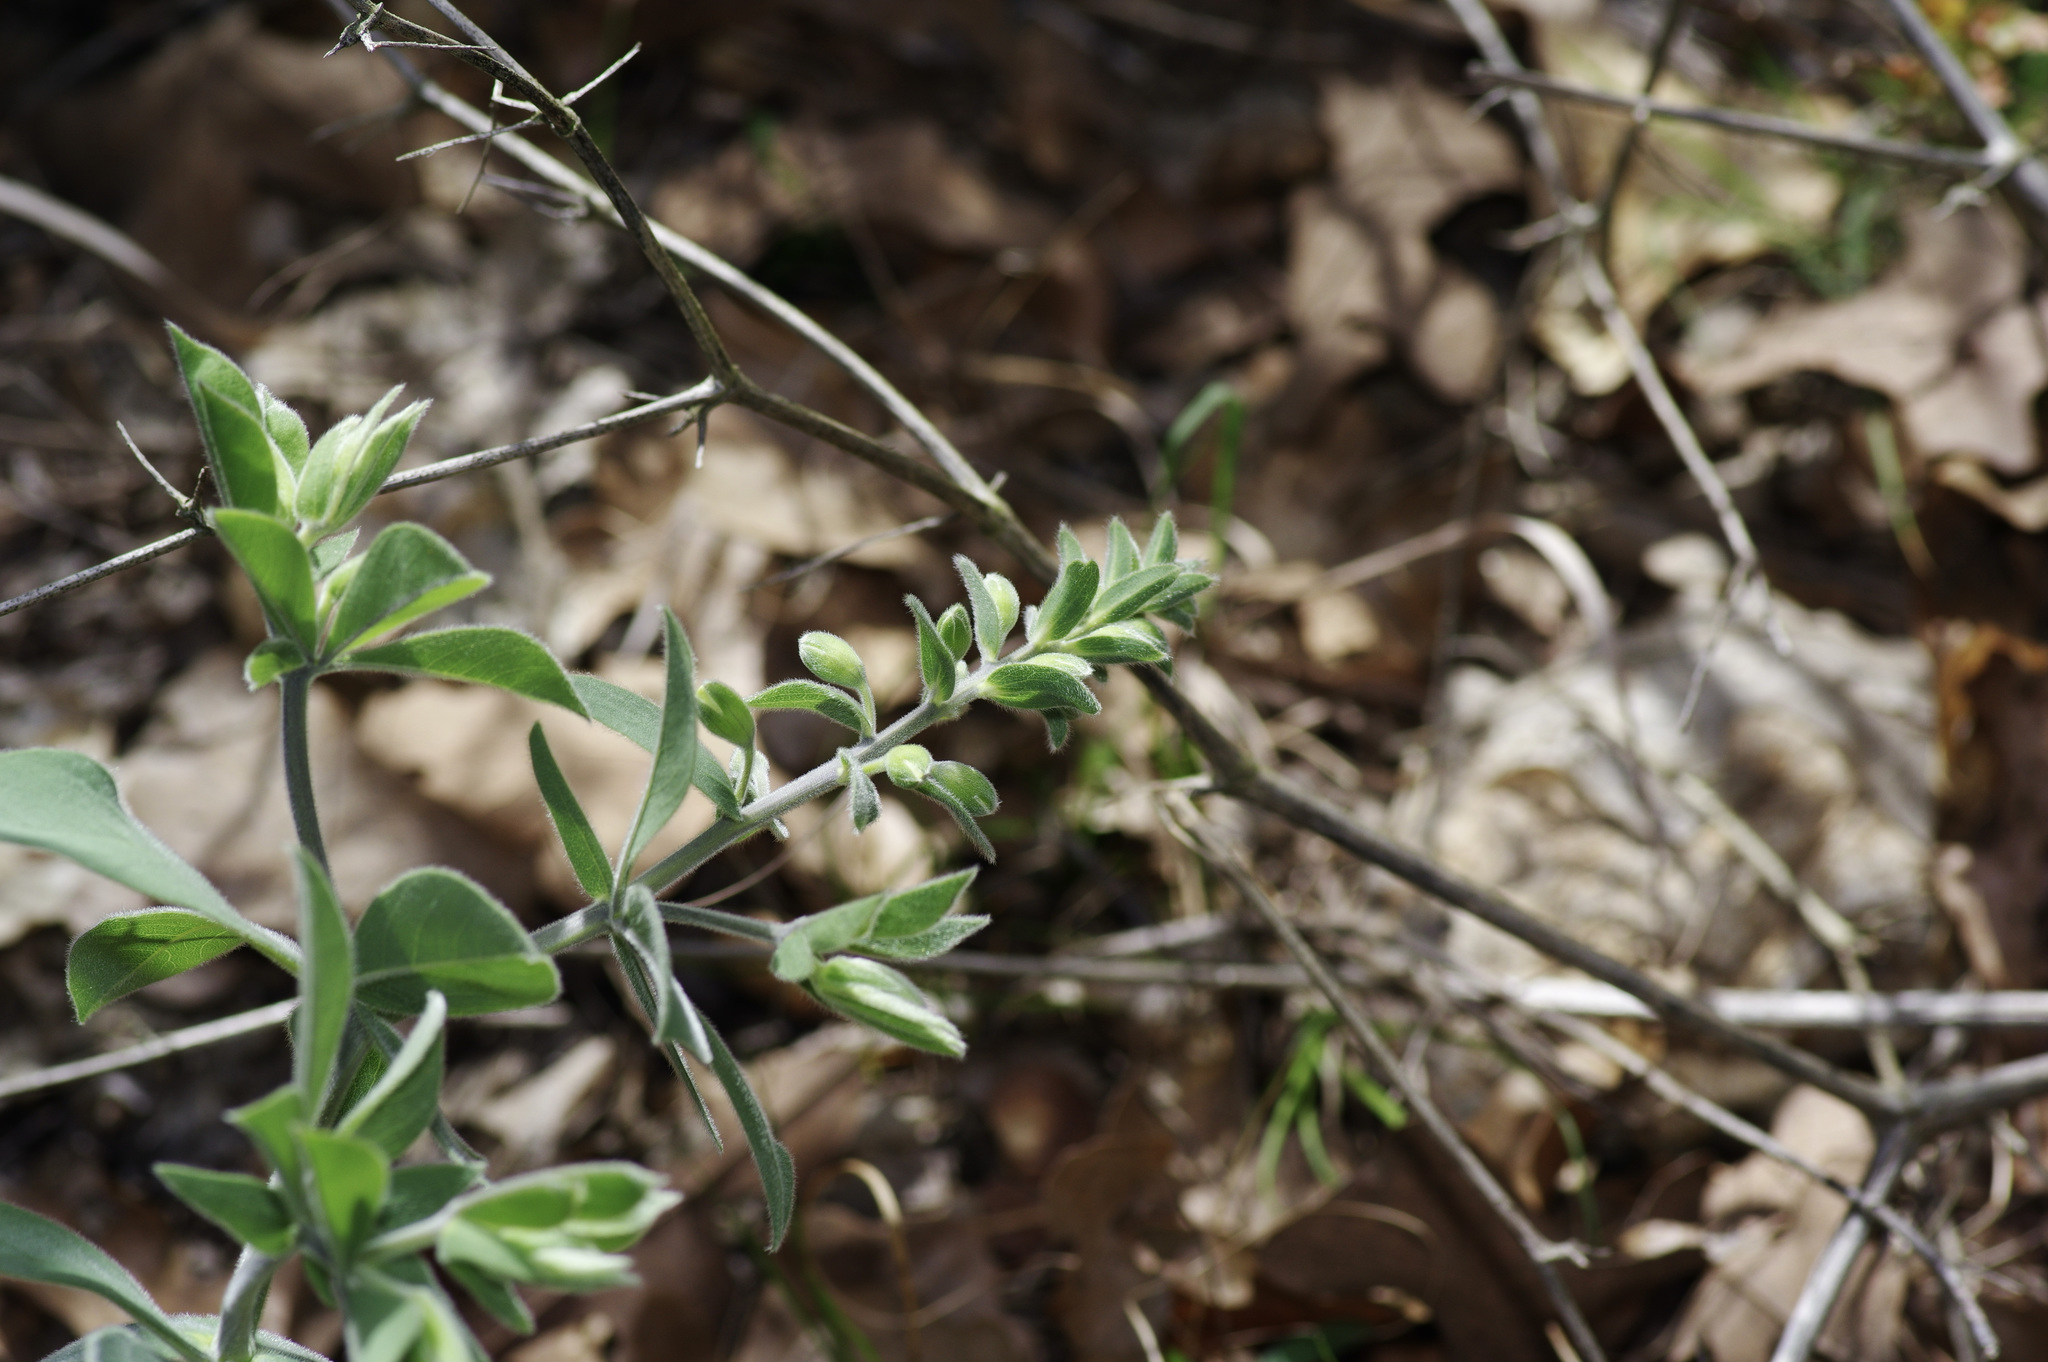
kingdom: Plantae
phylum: Tracheophyta
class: Magnoliopsida
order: Fabales
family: Fabaceae
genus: Baptisia
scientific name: Baptisia bracteata
